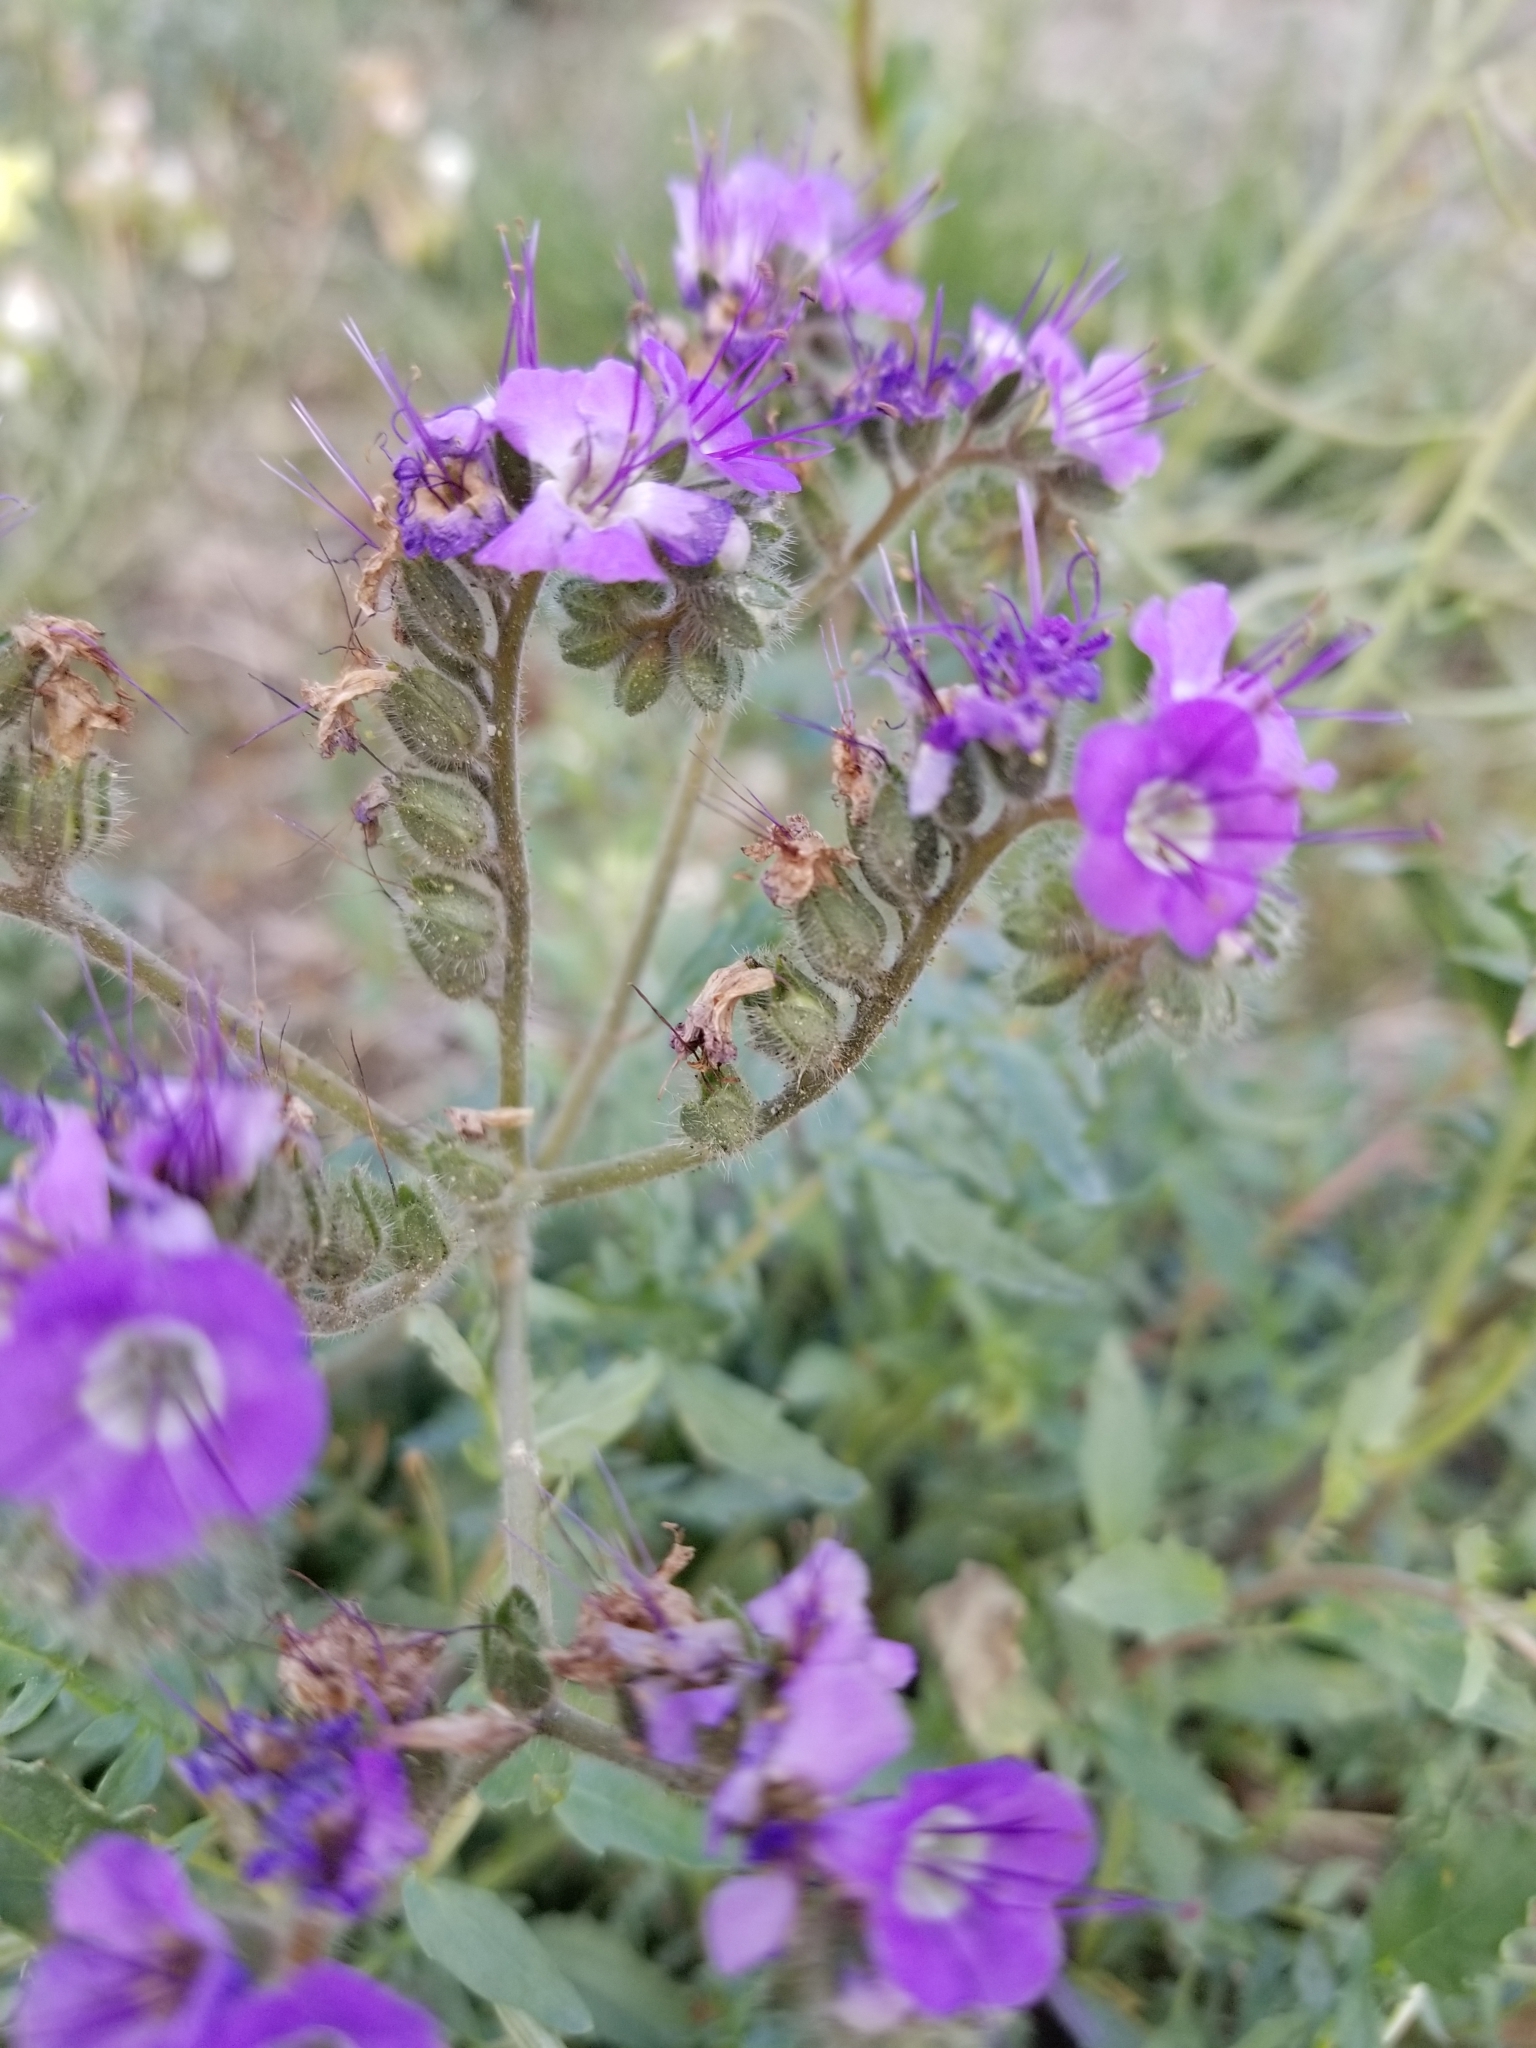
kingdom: Plantae
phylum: Tracheophyta
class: Magnoliopsida
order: Boraginales
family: Hydrophyllaceae
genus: Phacelia
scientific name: Phacelia crenulata
